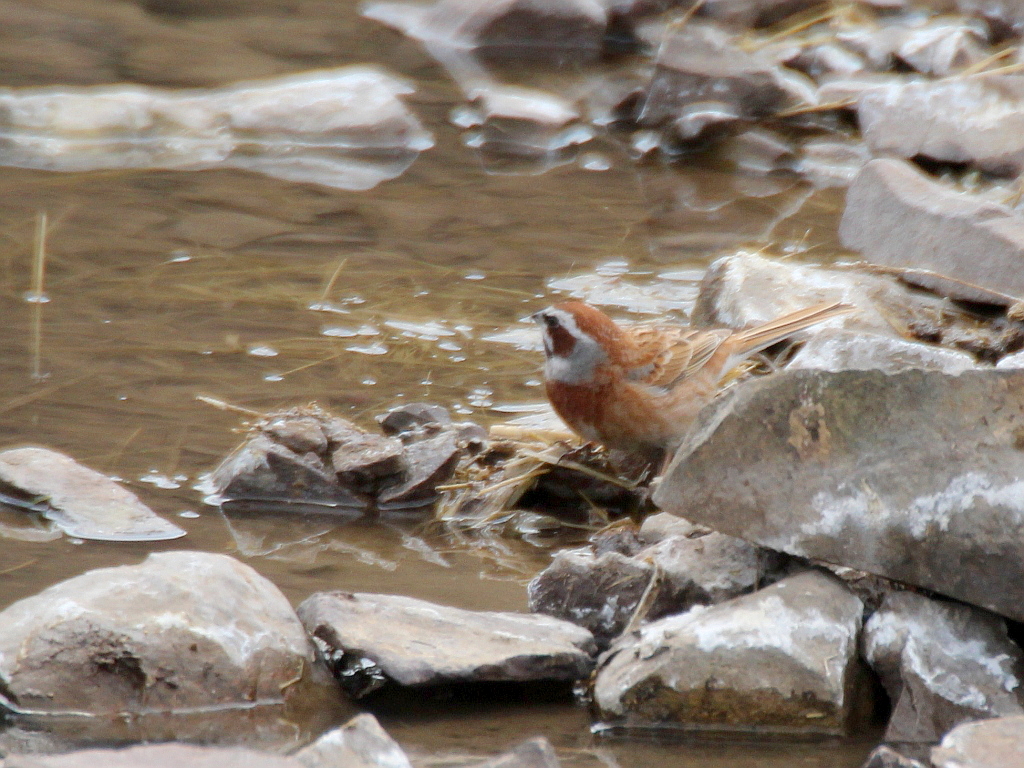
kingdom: Animalia
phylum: Chordata
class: Aves
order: Passeriformes
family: Emberizidae
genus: Emberiza
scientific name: Emberiza cioides
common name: Meadow bunting
